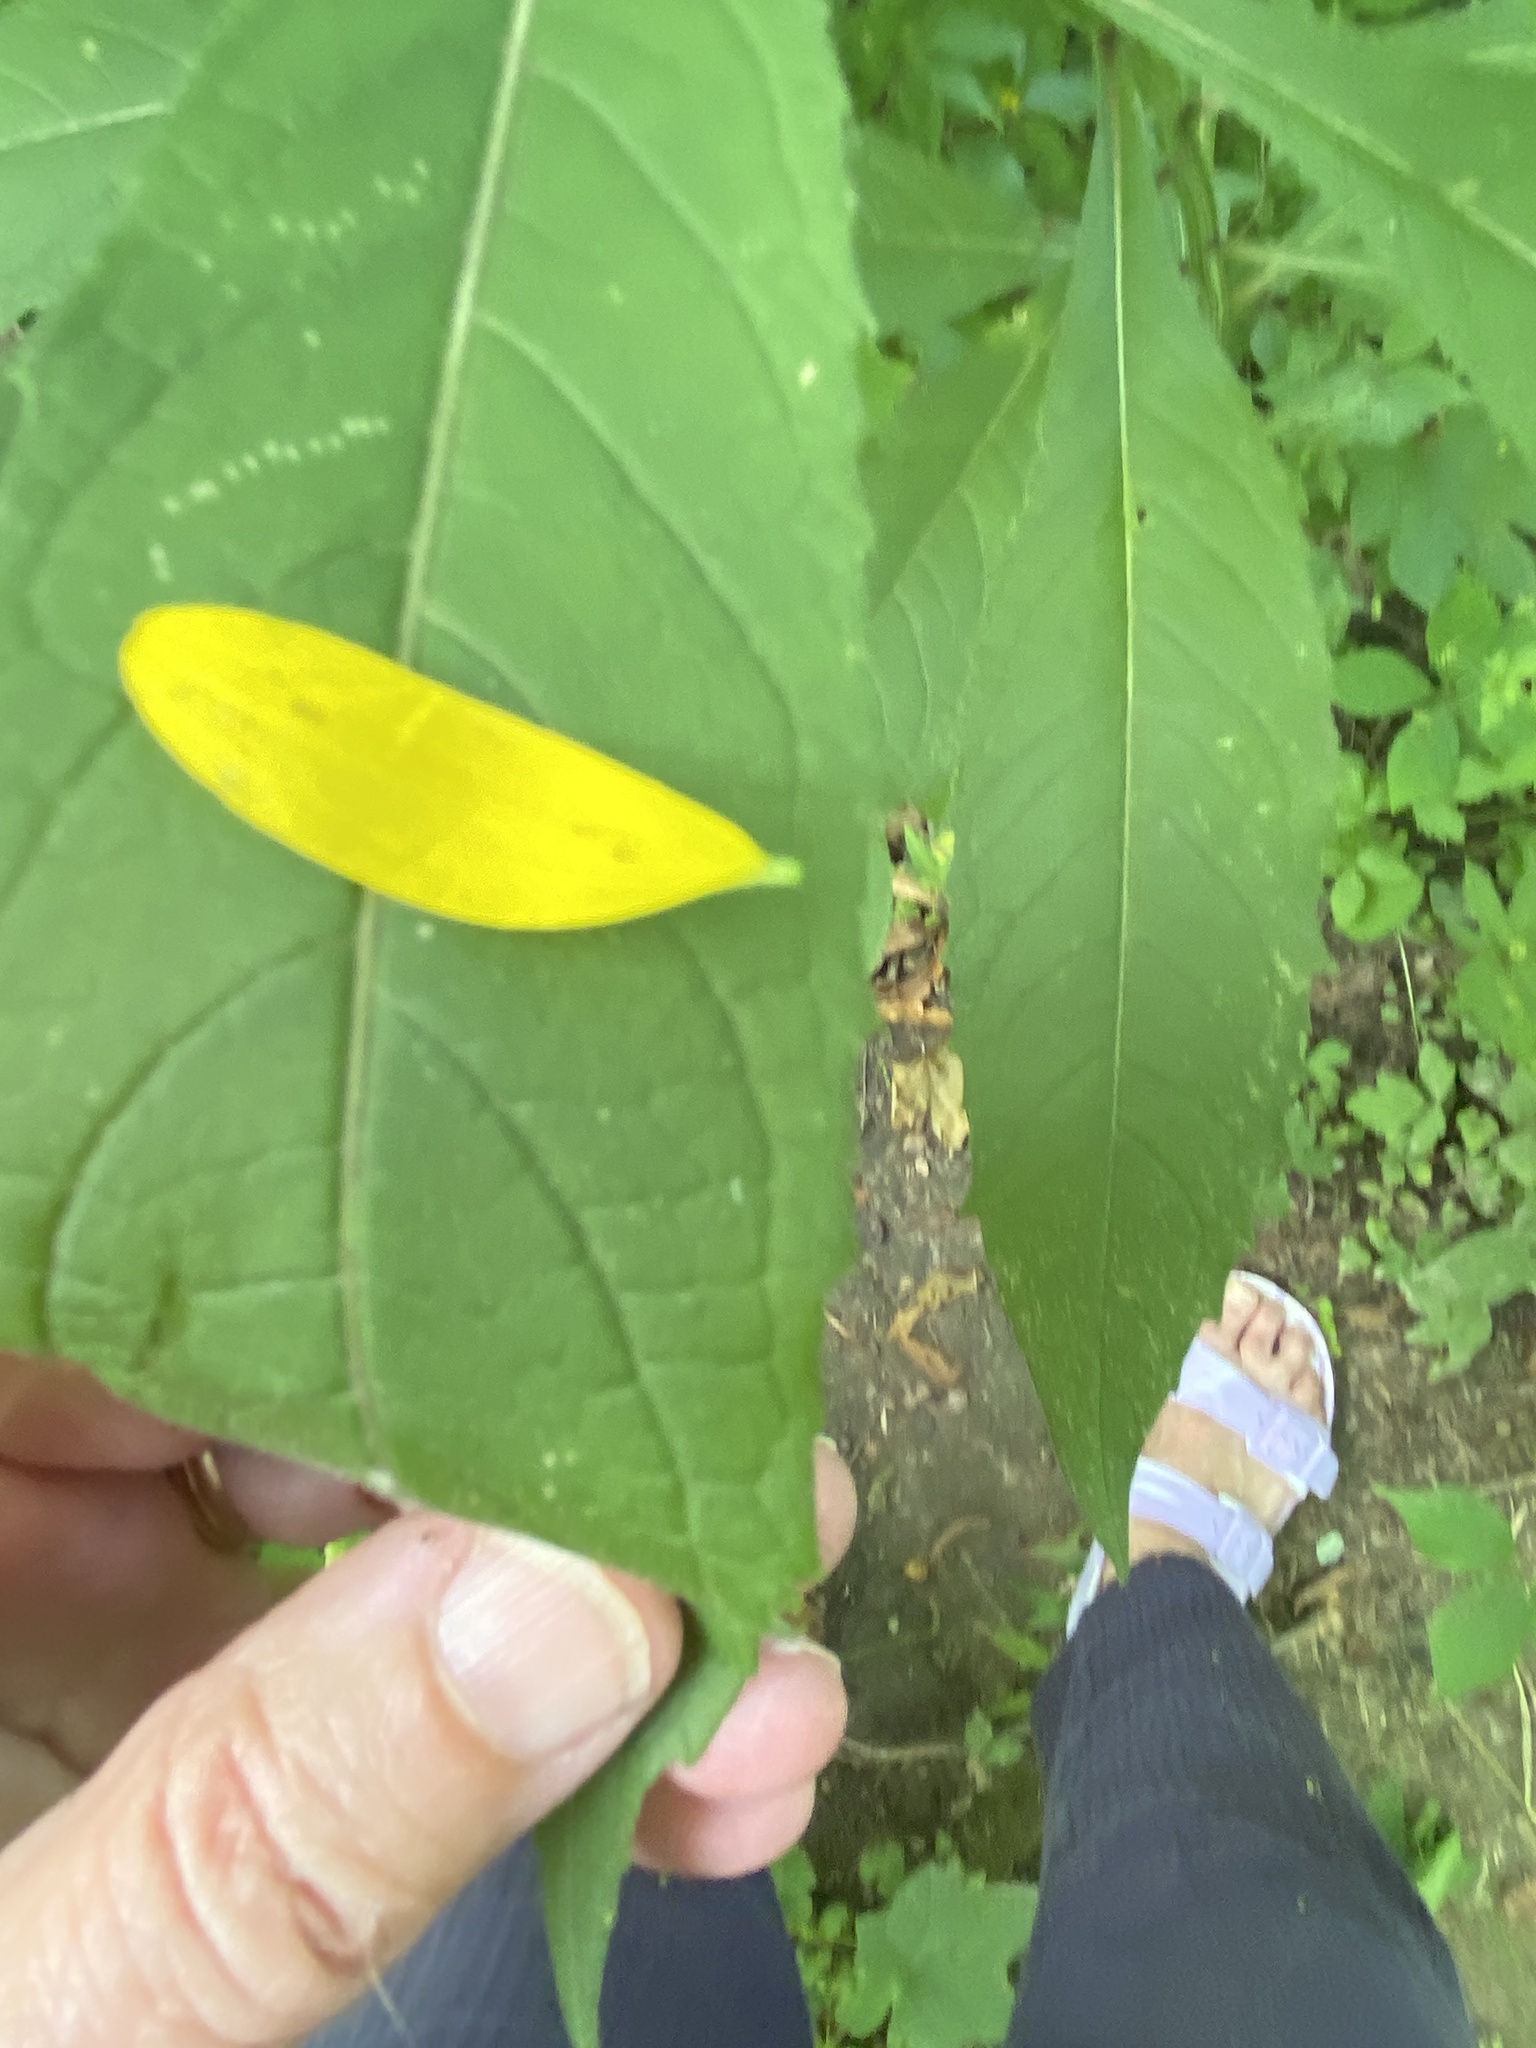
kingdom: Plantae
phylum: Tracheophyta
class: Magnoliopsida
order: Asterales
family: Asteraceae
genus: Verbesina
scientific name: Verbesina alternifolia
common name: Wingstem
